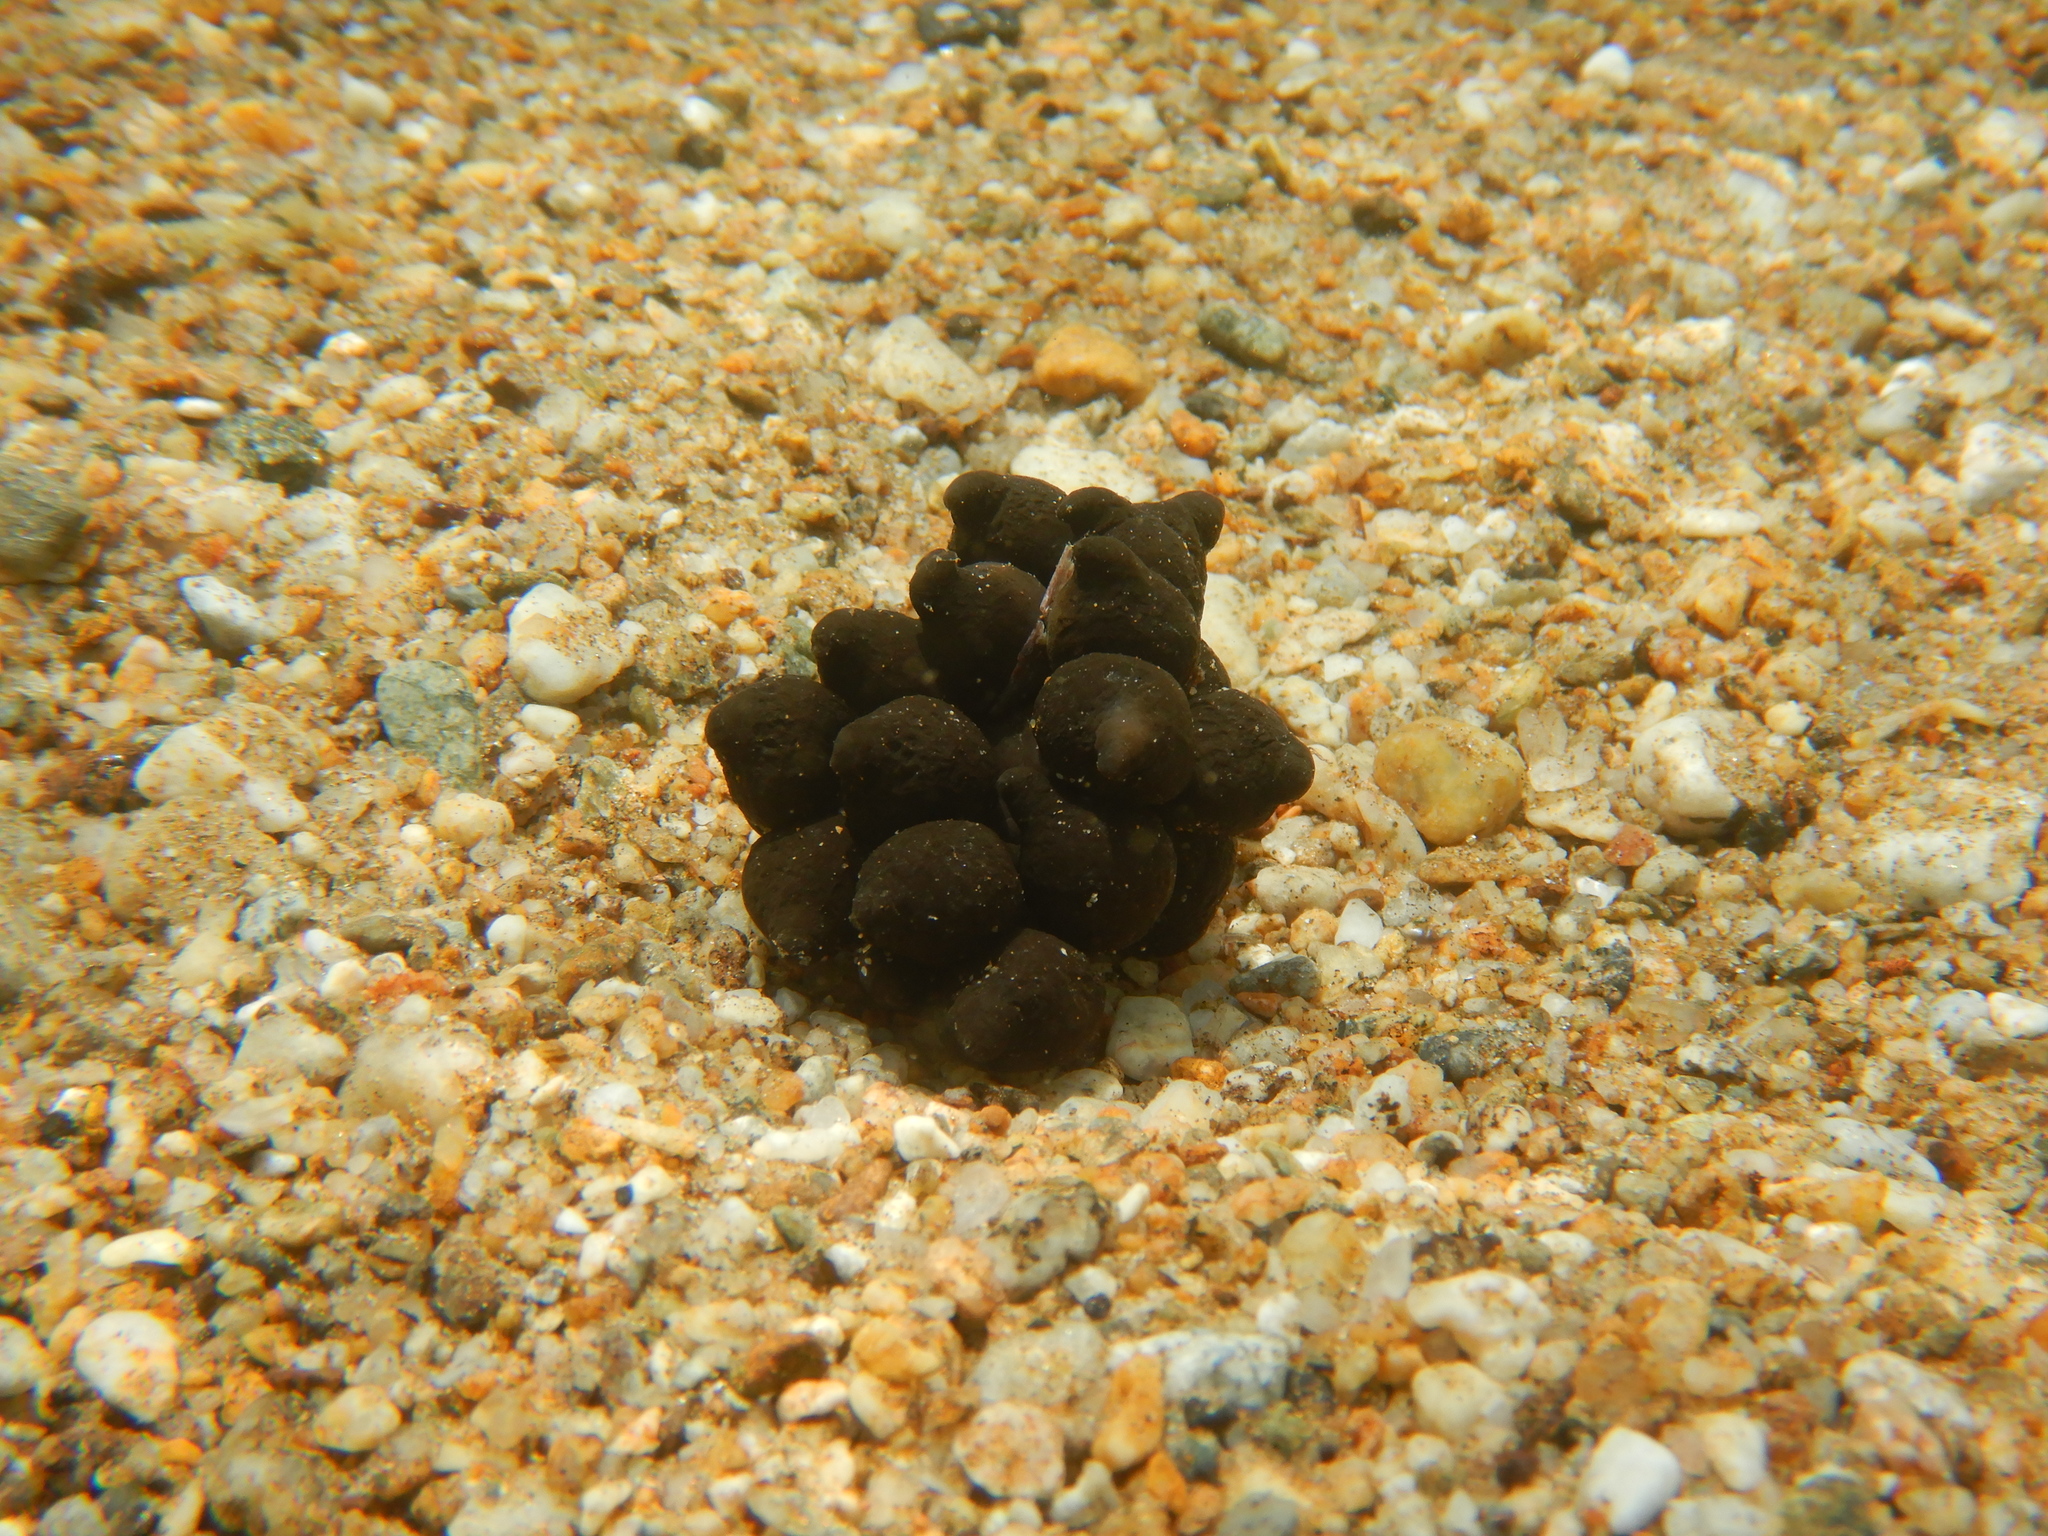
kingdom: Animalia
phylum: Mollusca
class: Cephalopoda
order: Sepiida
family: Sepiidae
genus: Sepia
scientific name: Sepia officinalis
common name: Common cuttlefish
